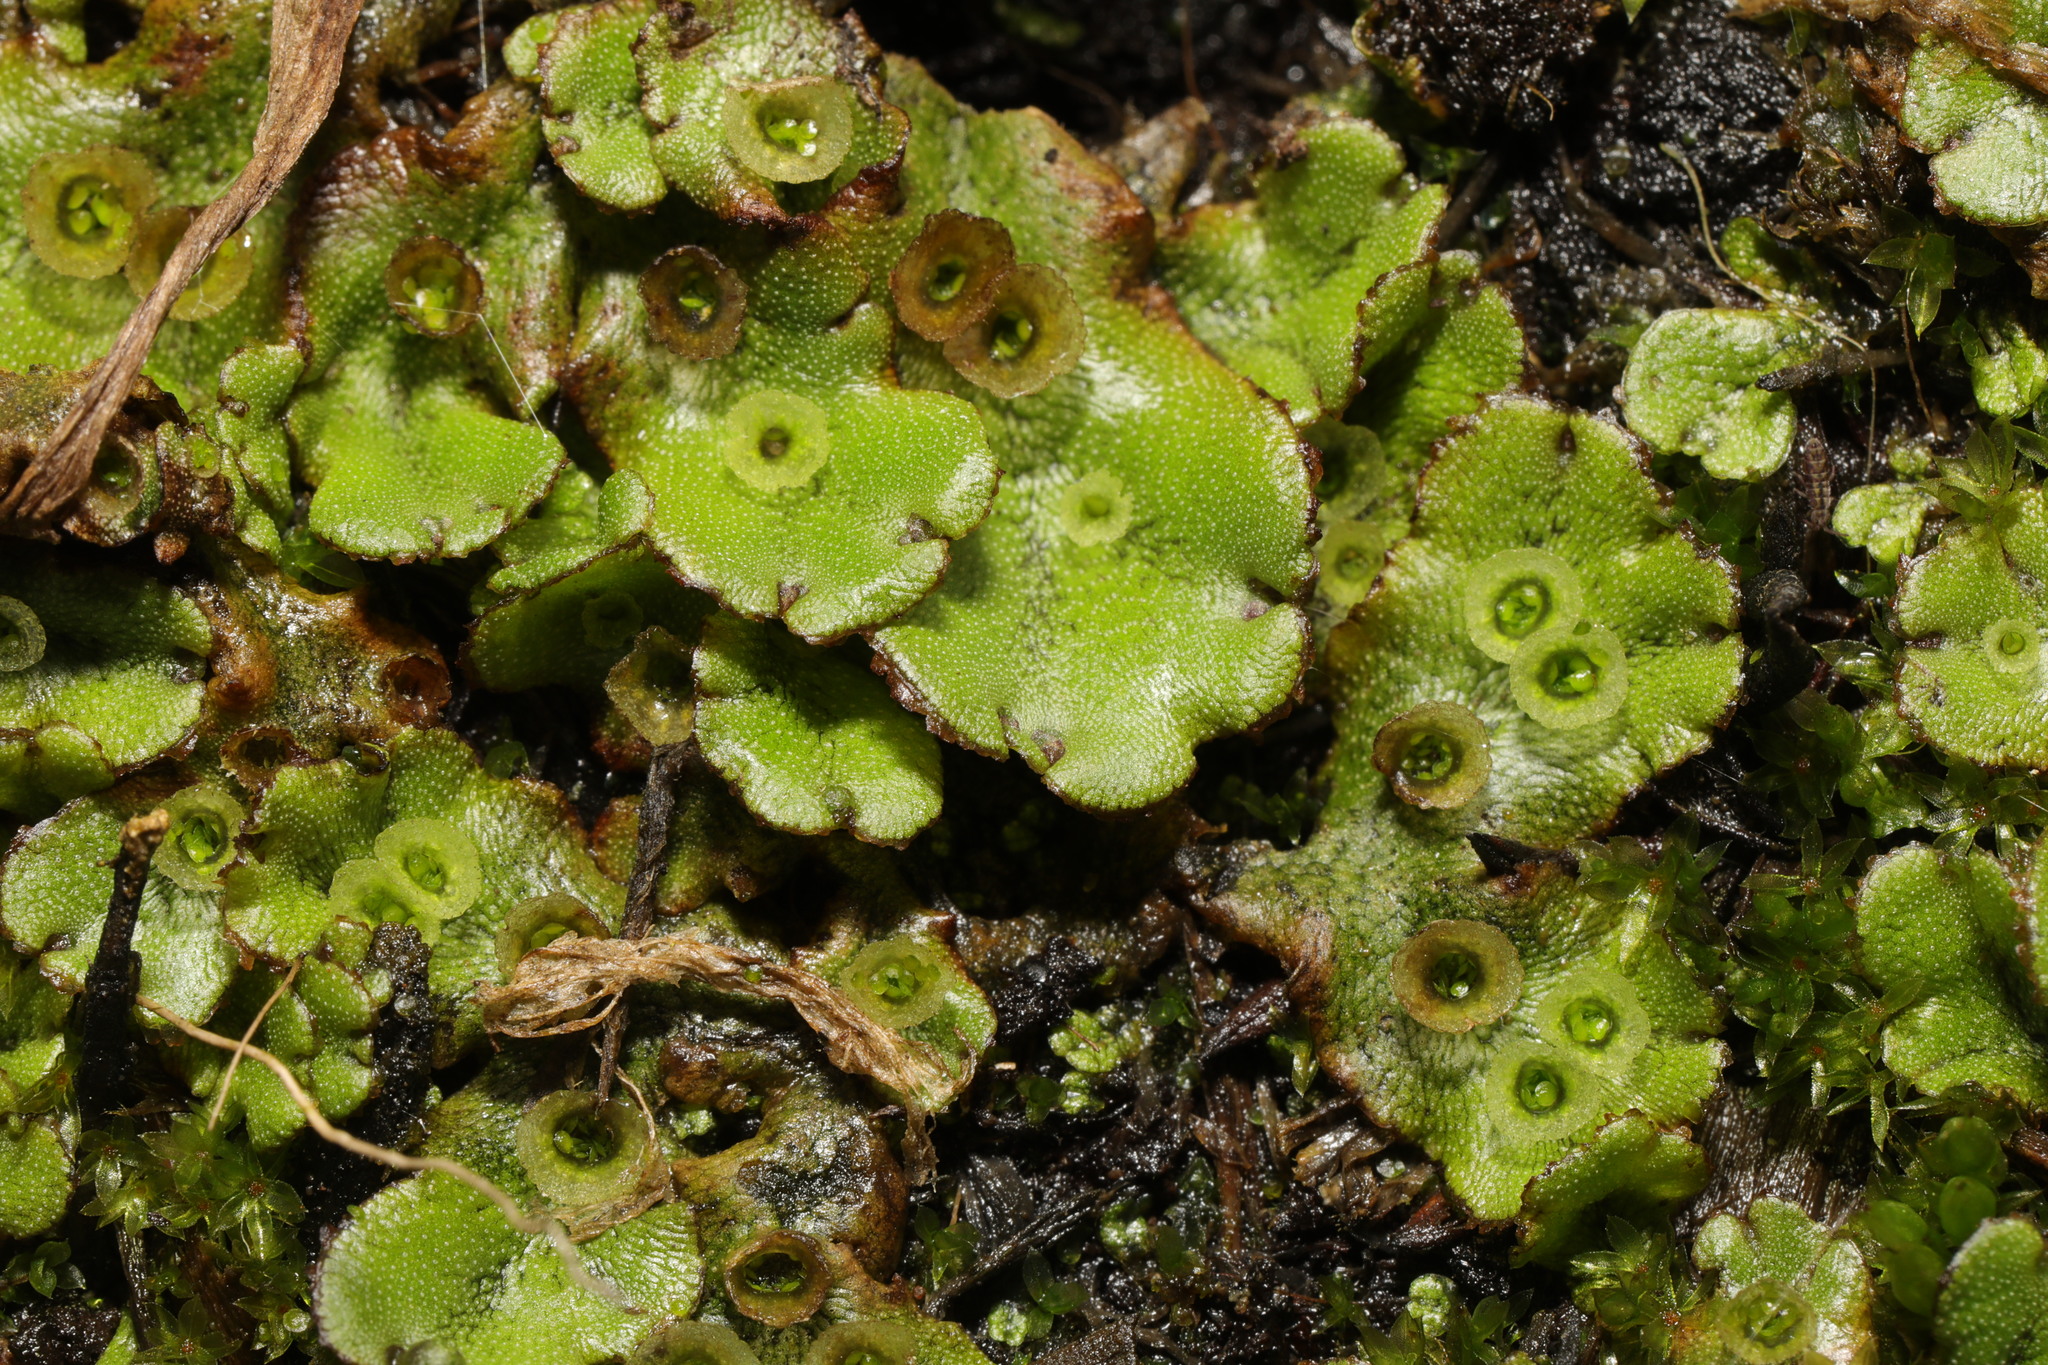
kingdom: Plantae
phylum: Marchantiophyta
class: Marchantiopsida
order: Marchantiales
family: Marchantiaceae
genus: Marchantia
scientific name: Marchantia polymorpha
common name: Common liverwort
